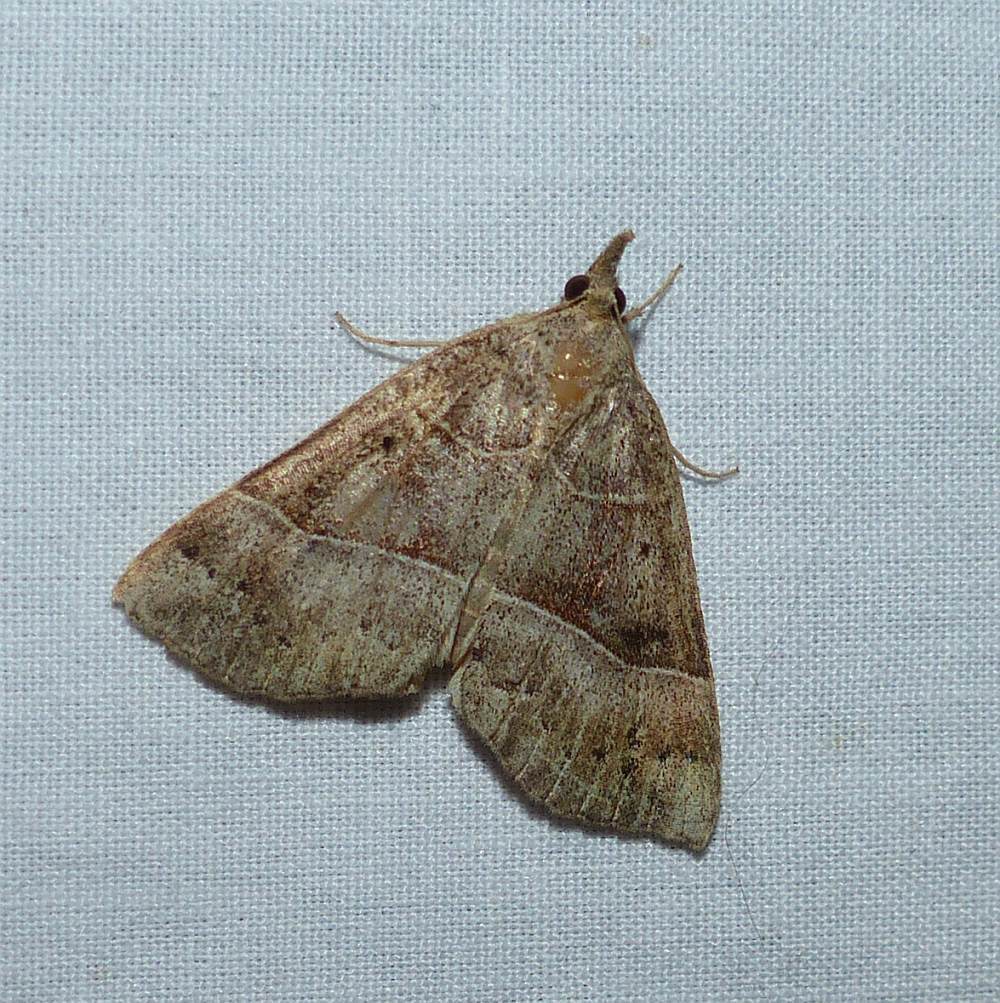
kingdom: Animalia
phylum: Arthropoda
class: Insecta
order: Lepidoptera
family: Erebidae
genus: Hypena
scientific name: Hypena deceptalis
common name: Deceptive snout
